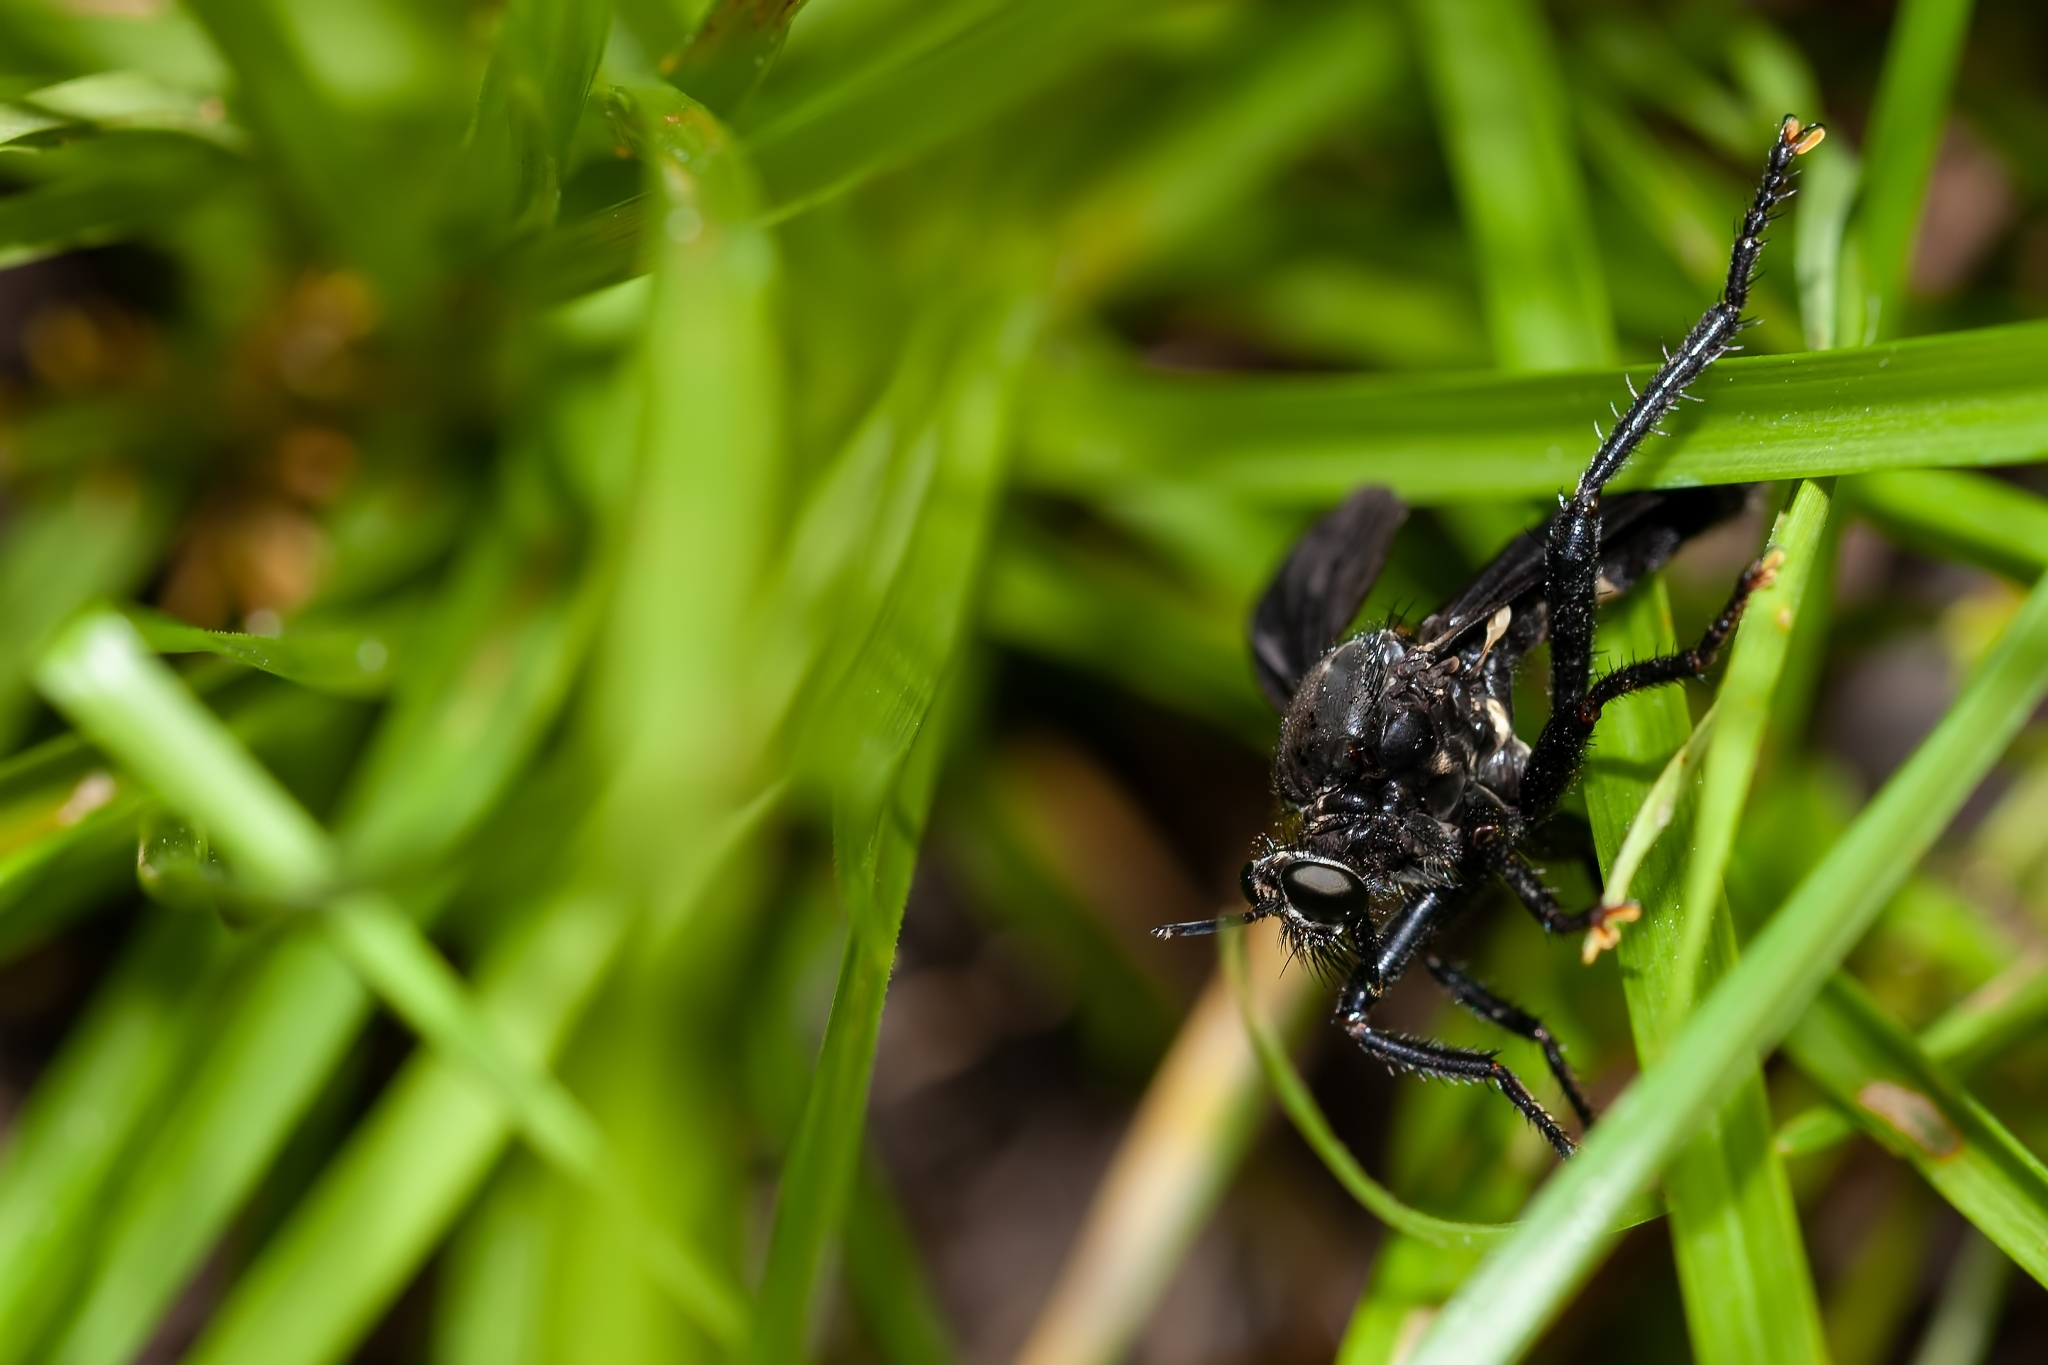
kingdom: Animalia
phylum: Arthropoda
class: Insecta
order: Diptera
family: Asilidae
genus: Prolepsis
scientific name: Prolepsis tristis
